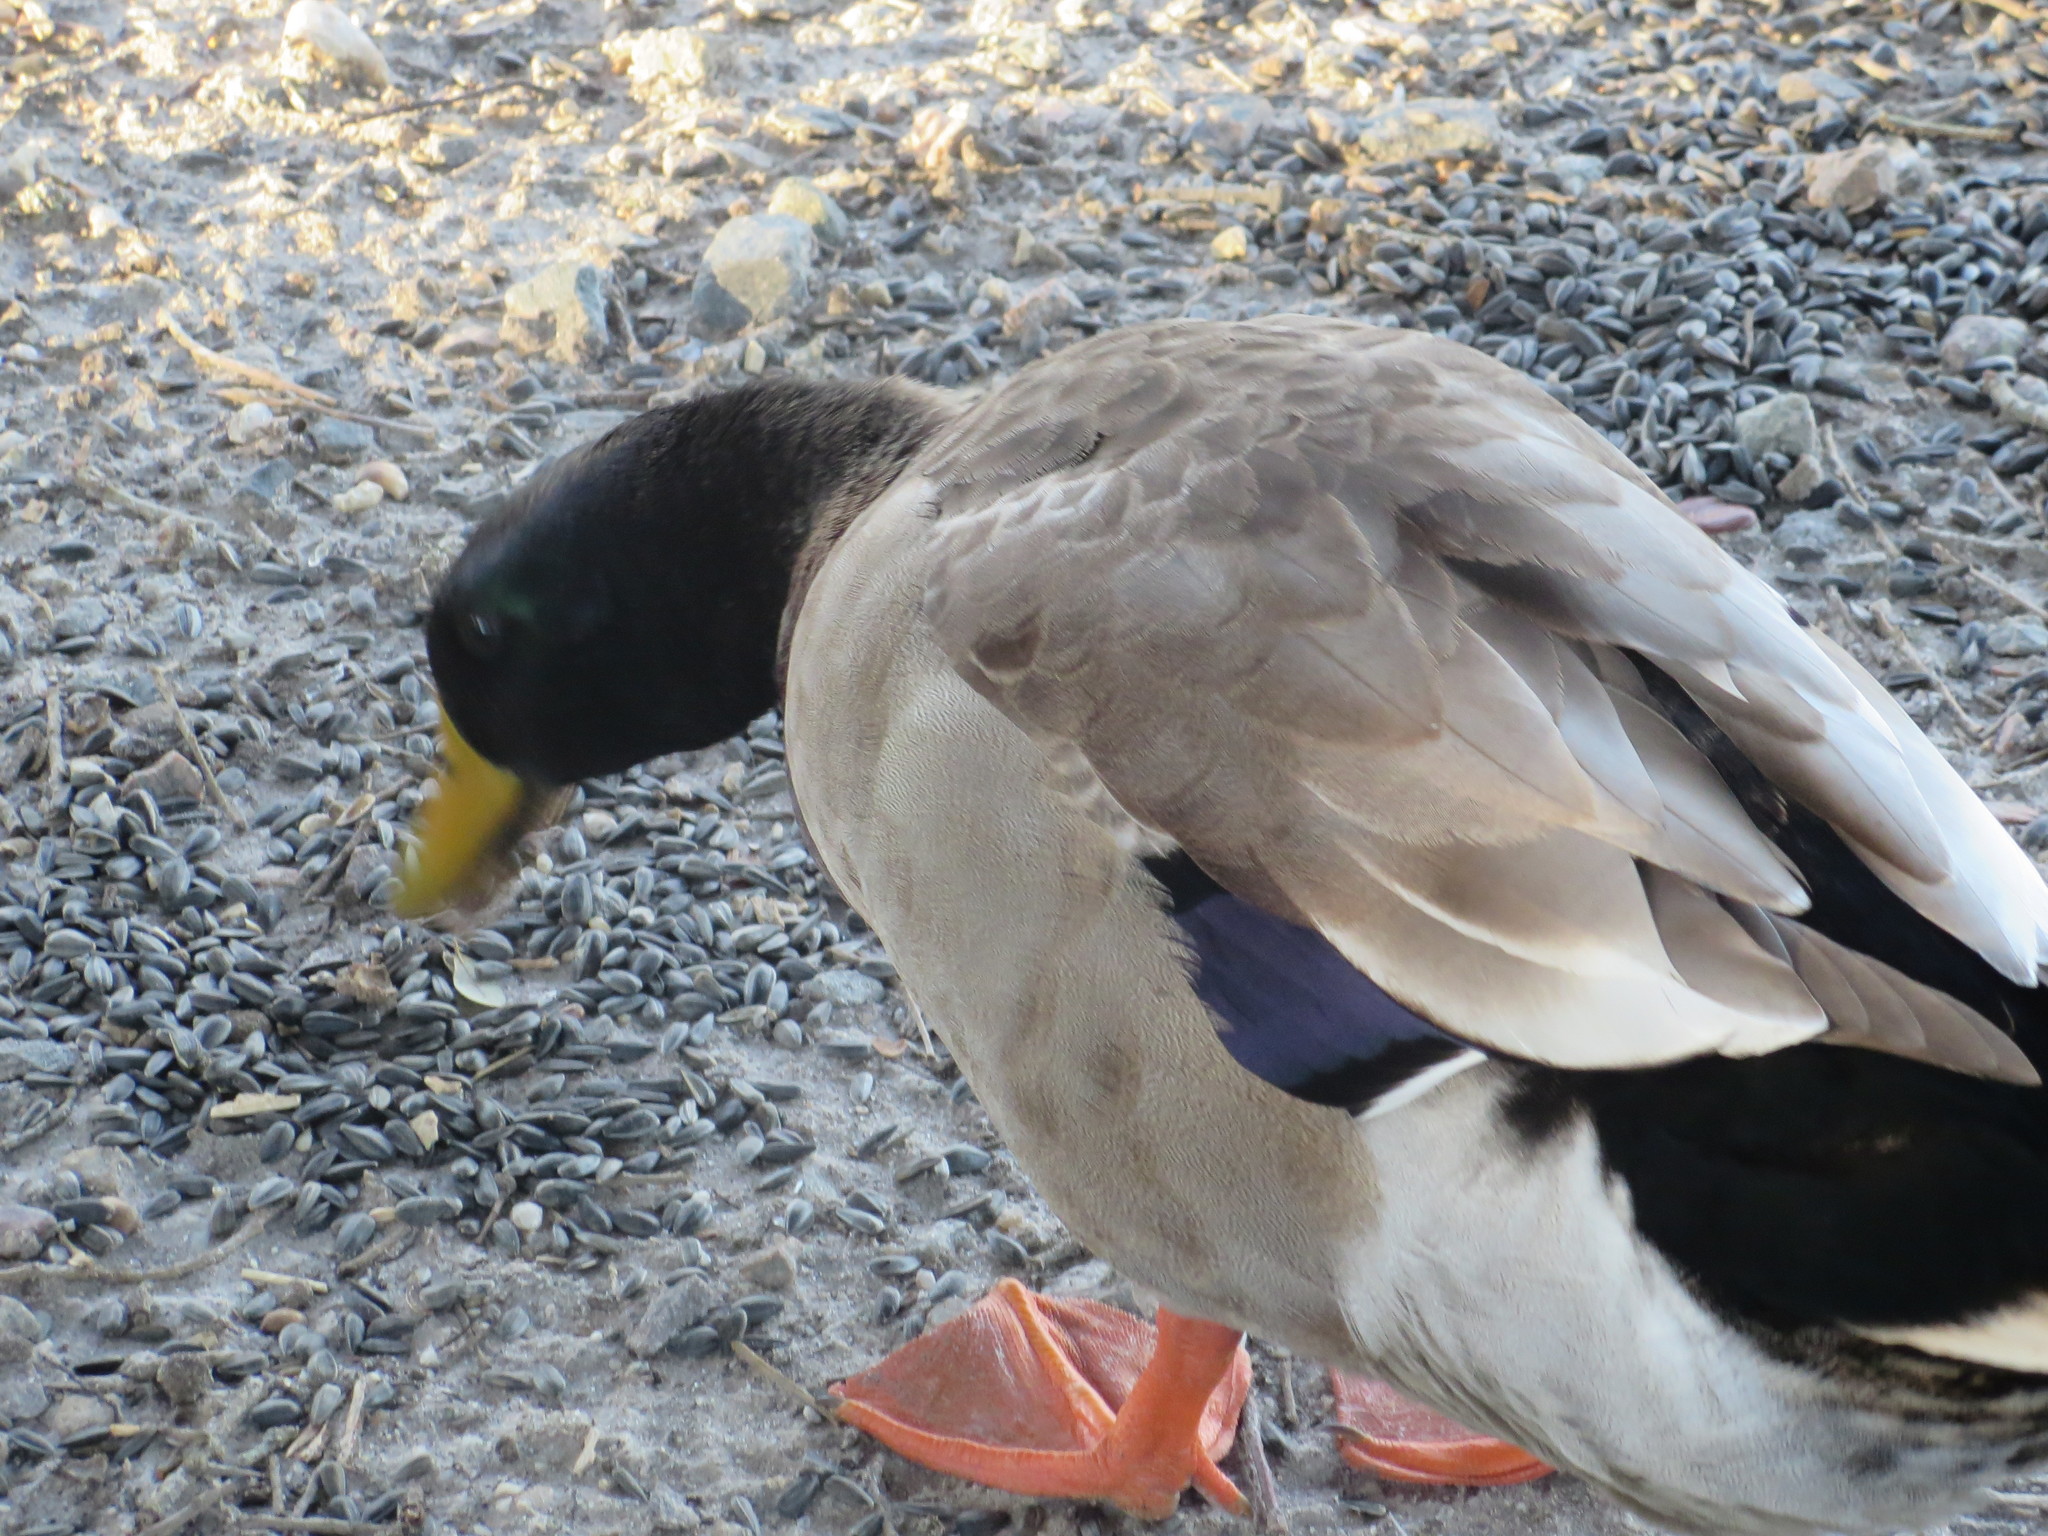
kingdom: Animalia
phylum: Chordata
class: Aves
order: Anseriformes
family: Anatidae
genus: Anas
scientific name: Anas platyrhynchos
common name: Mallard
